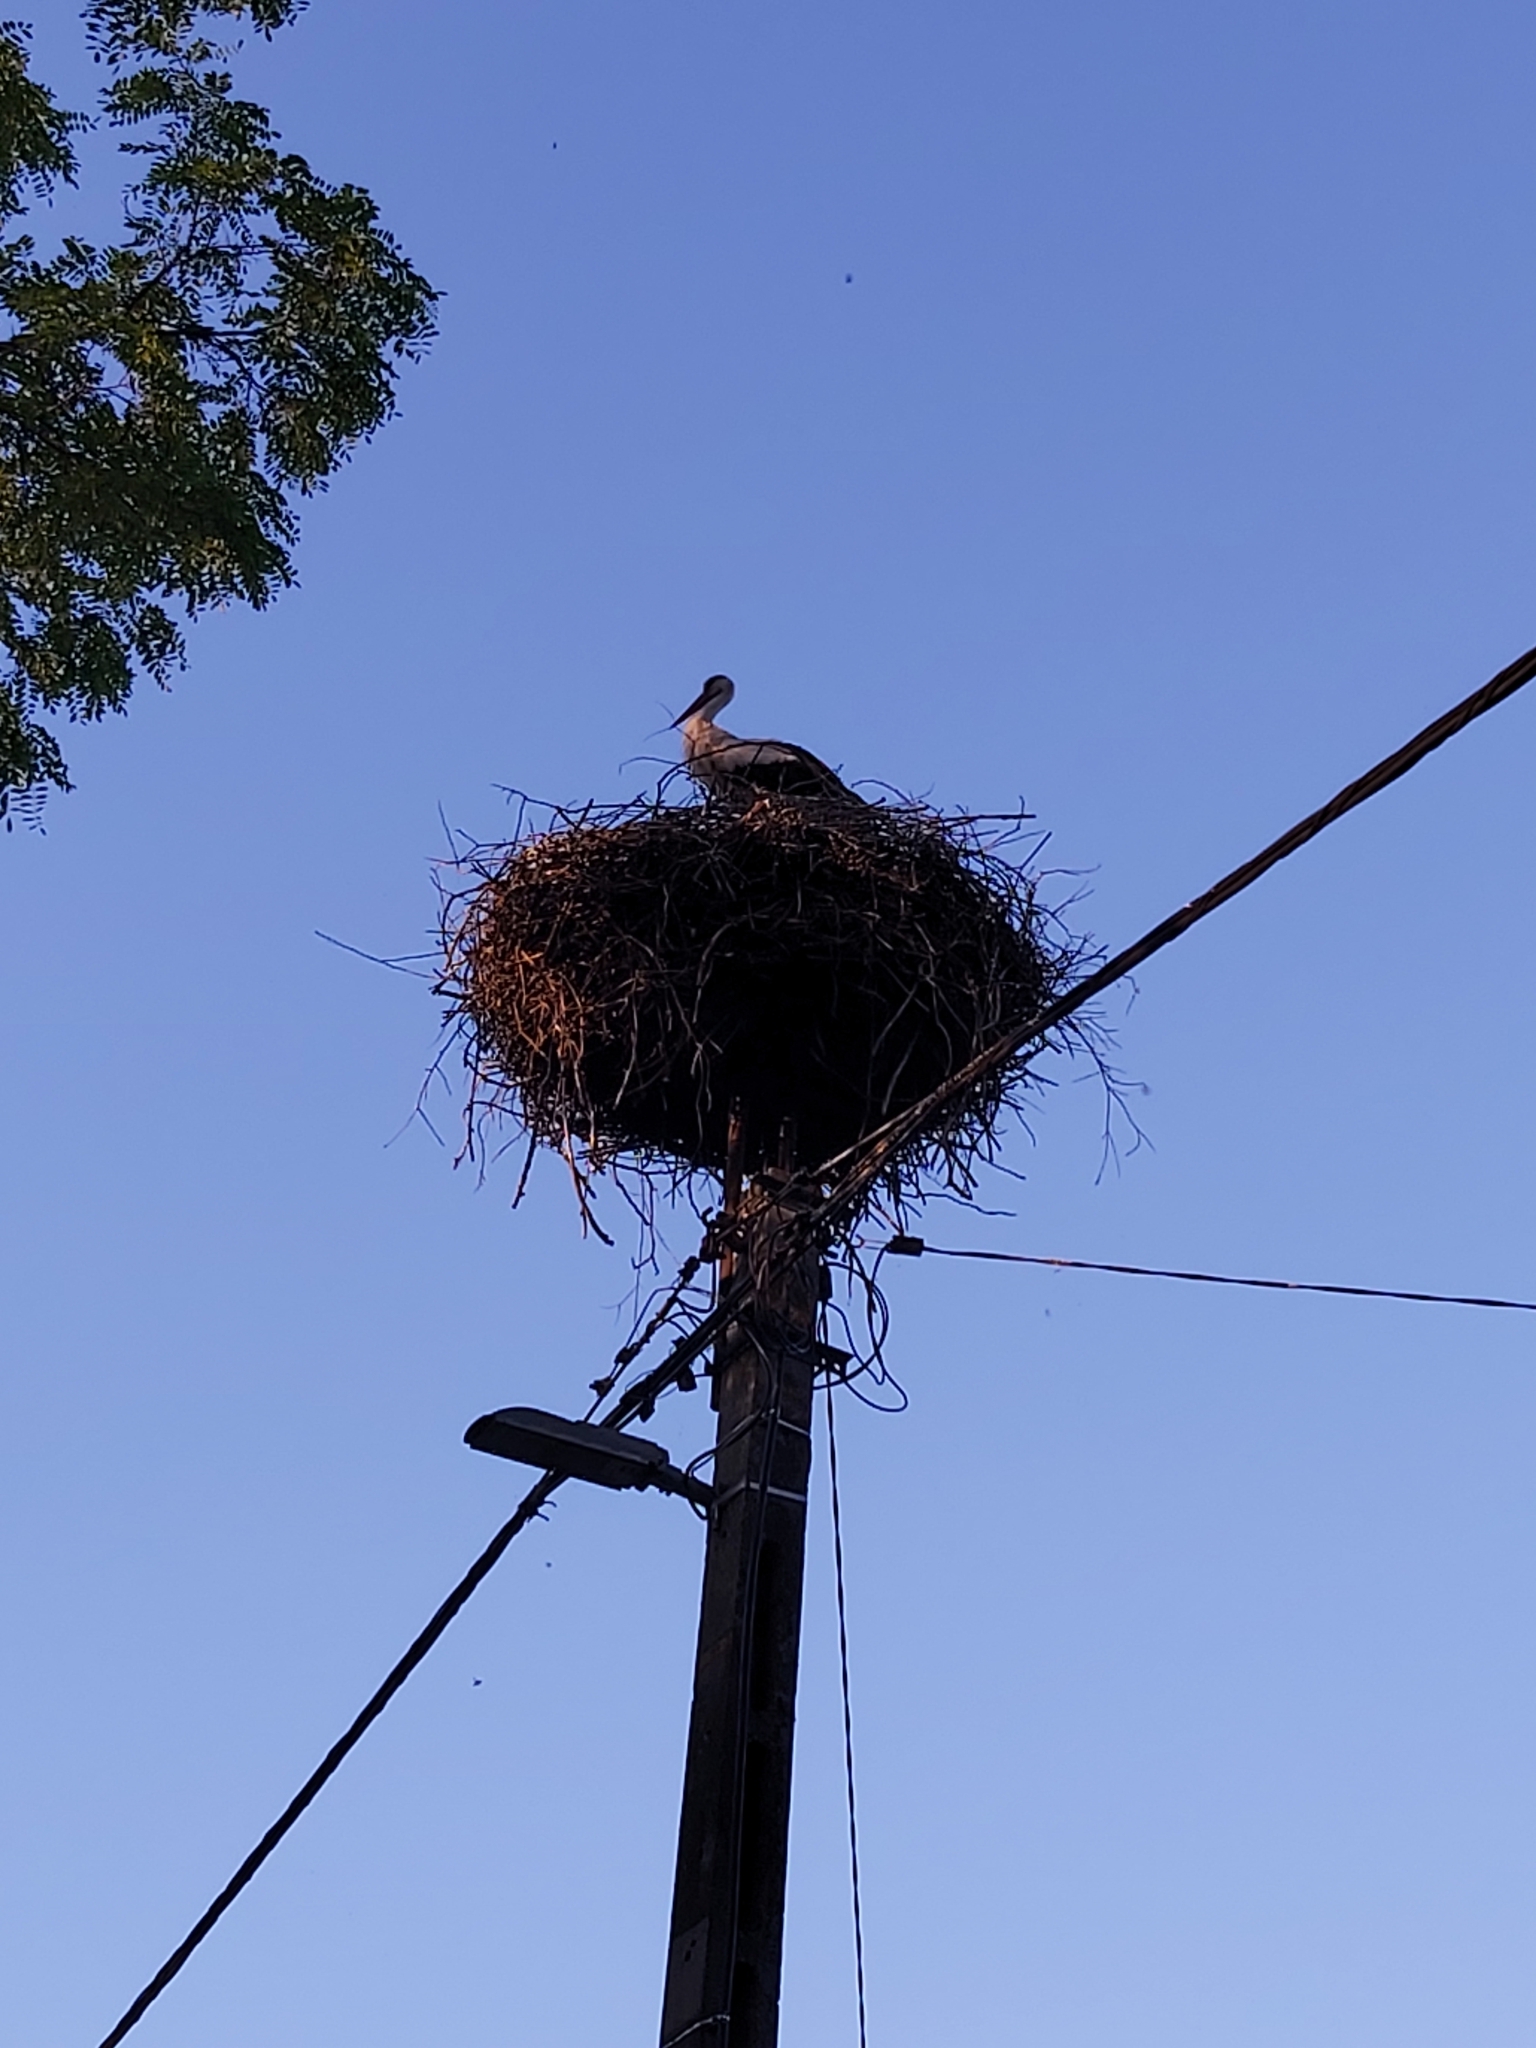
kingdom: Animalia
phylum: Chordata
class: Aves
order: Ciconiiformes
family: Ciconiidae
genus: Ciconia
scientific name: Ciconia ciconia
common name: White stork
